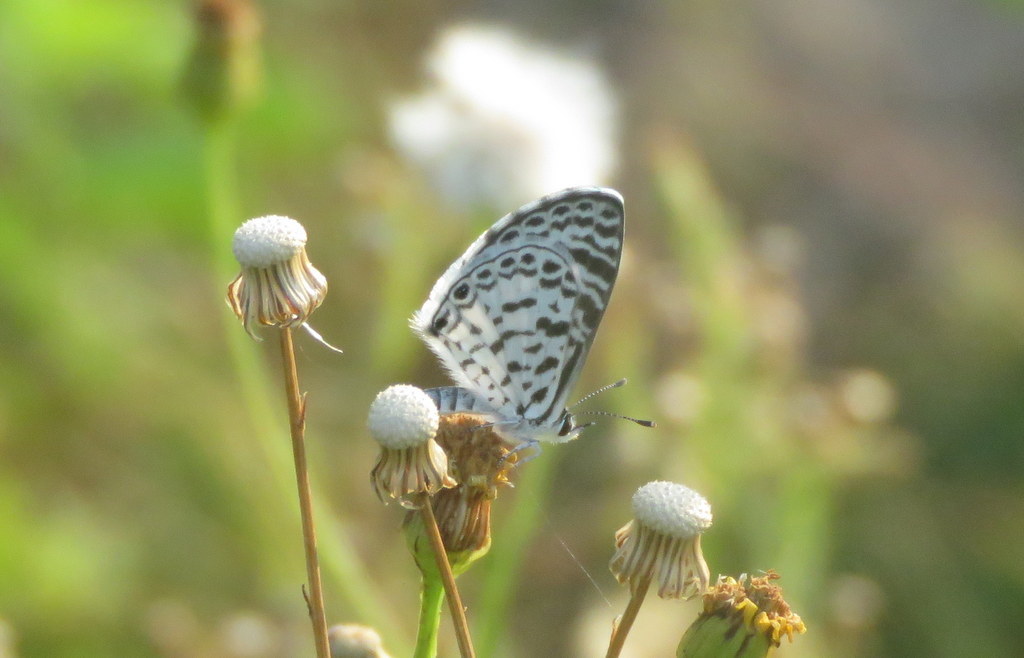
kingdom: Animalia
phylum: Arthropoda
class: Insecta
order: Lepidoptera
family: Lycaenidae
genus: Leptotes
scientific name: Leptotes cassius
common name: Cassius blue
